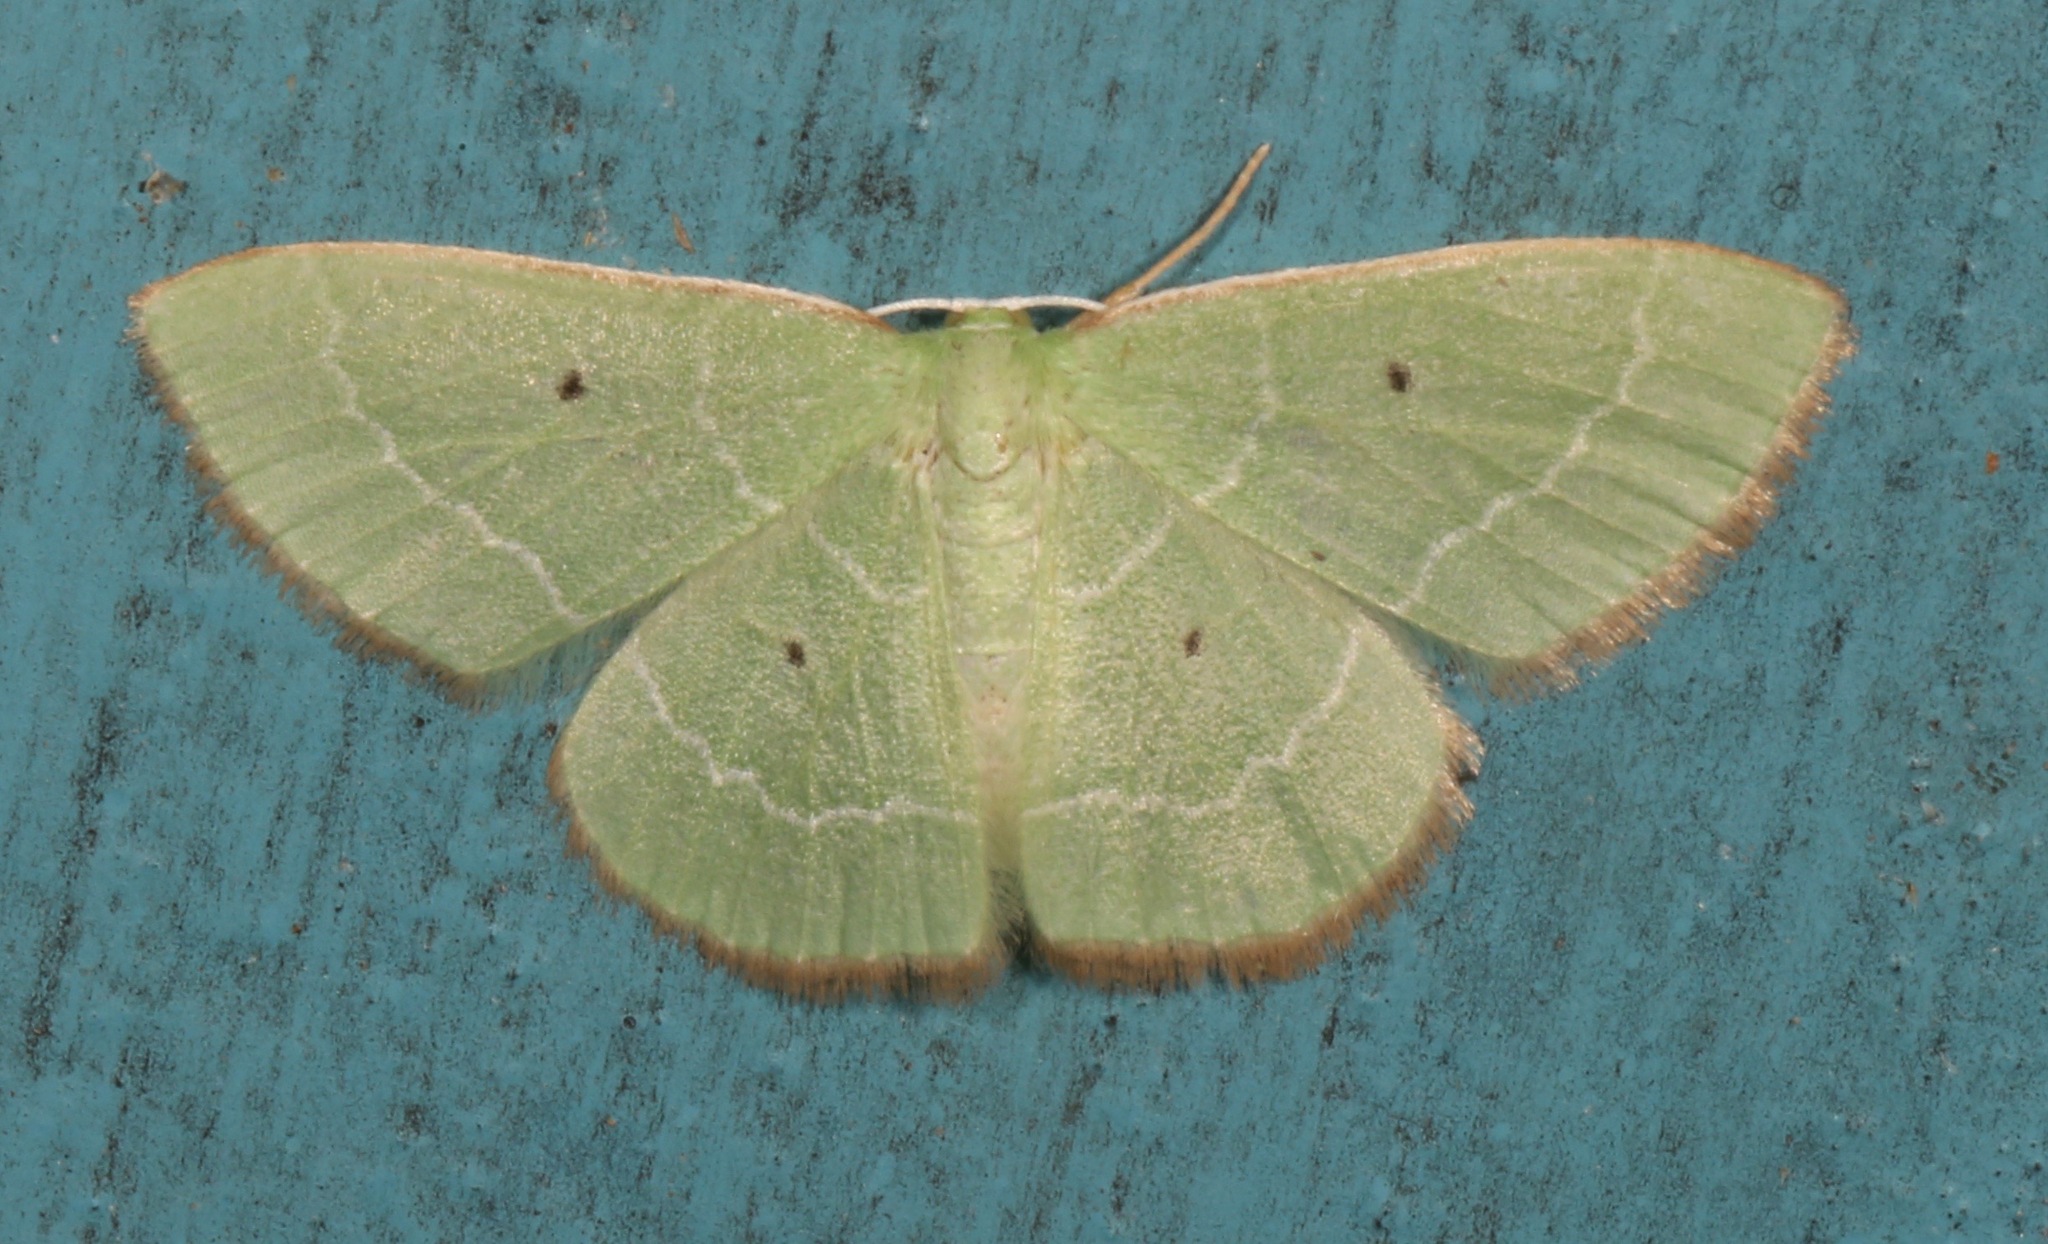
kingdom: Animalia
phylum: Arthropoda
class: Insecta
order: Lepidoptera
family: Geometridae
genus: Nemoria
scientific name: Nemoria elfa
